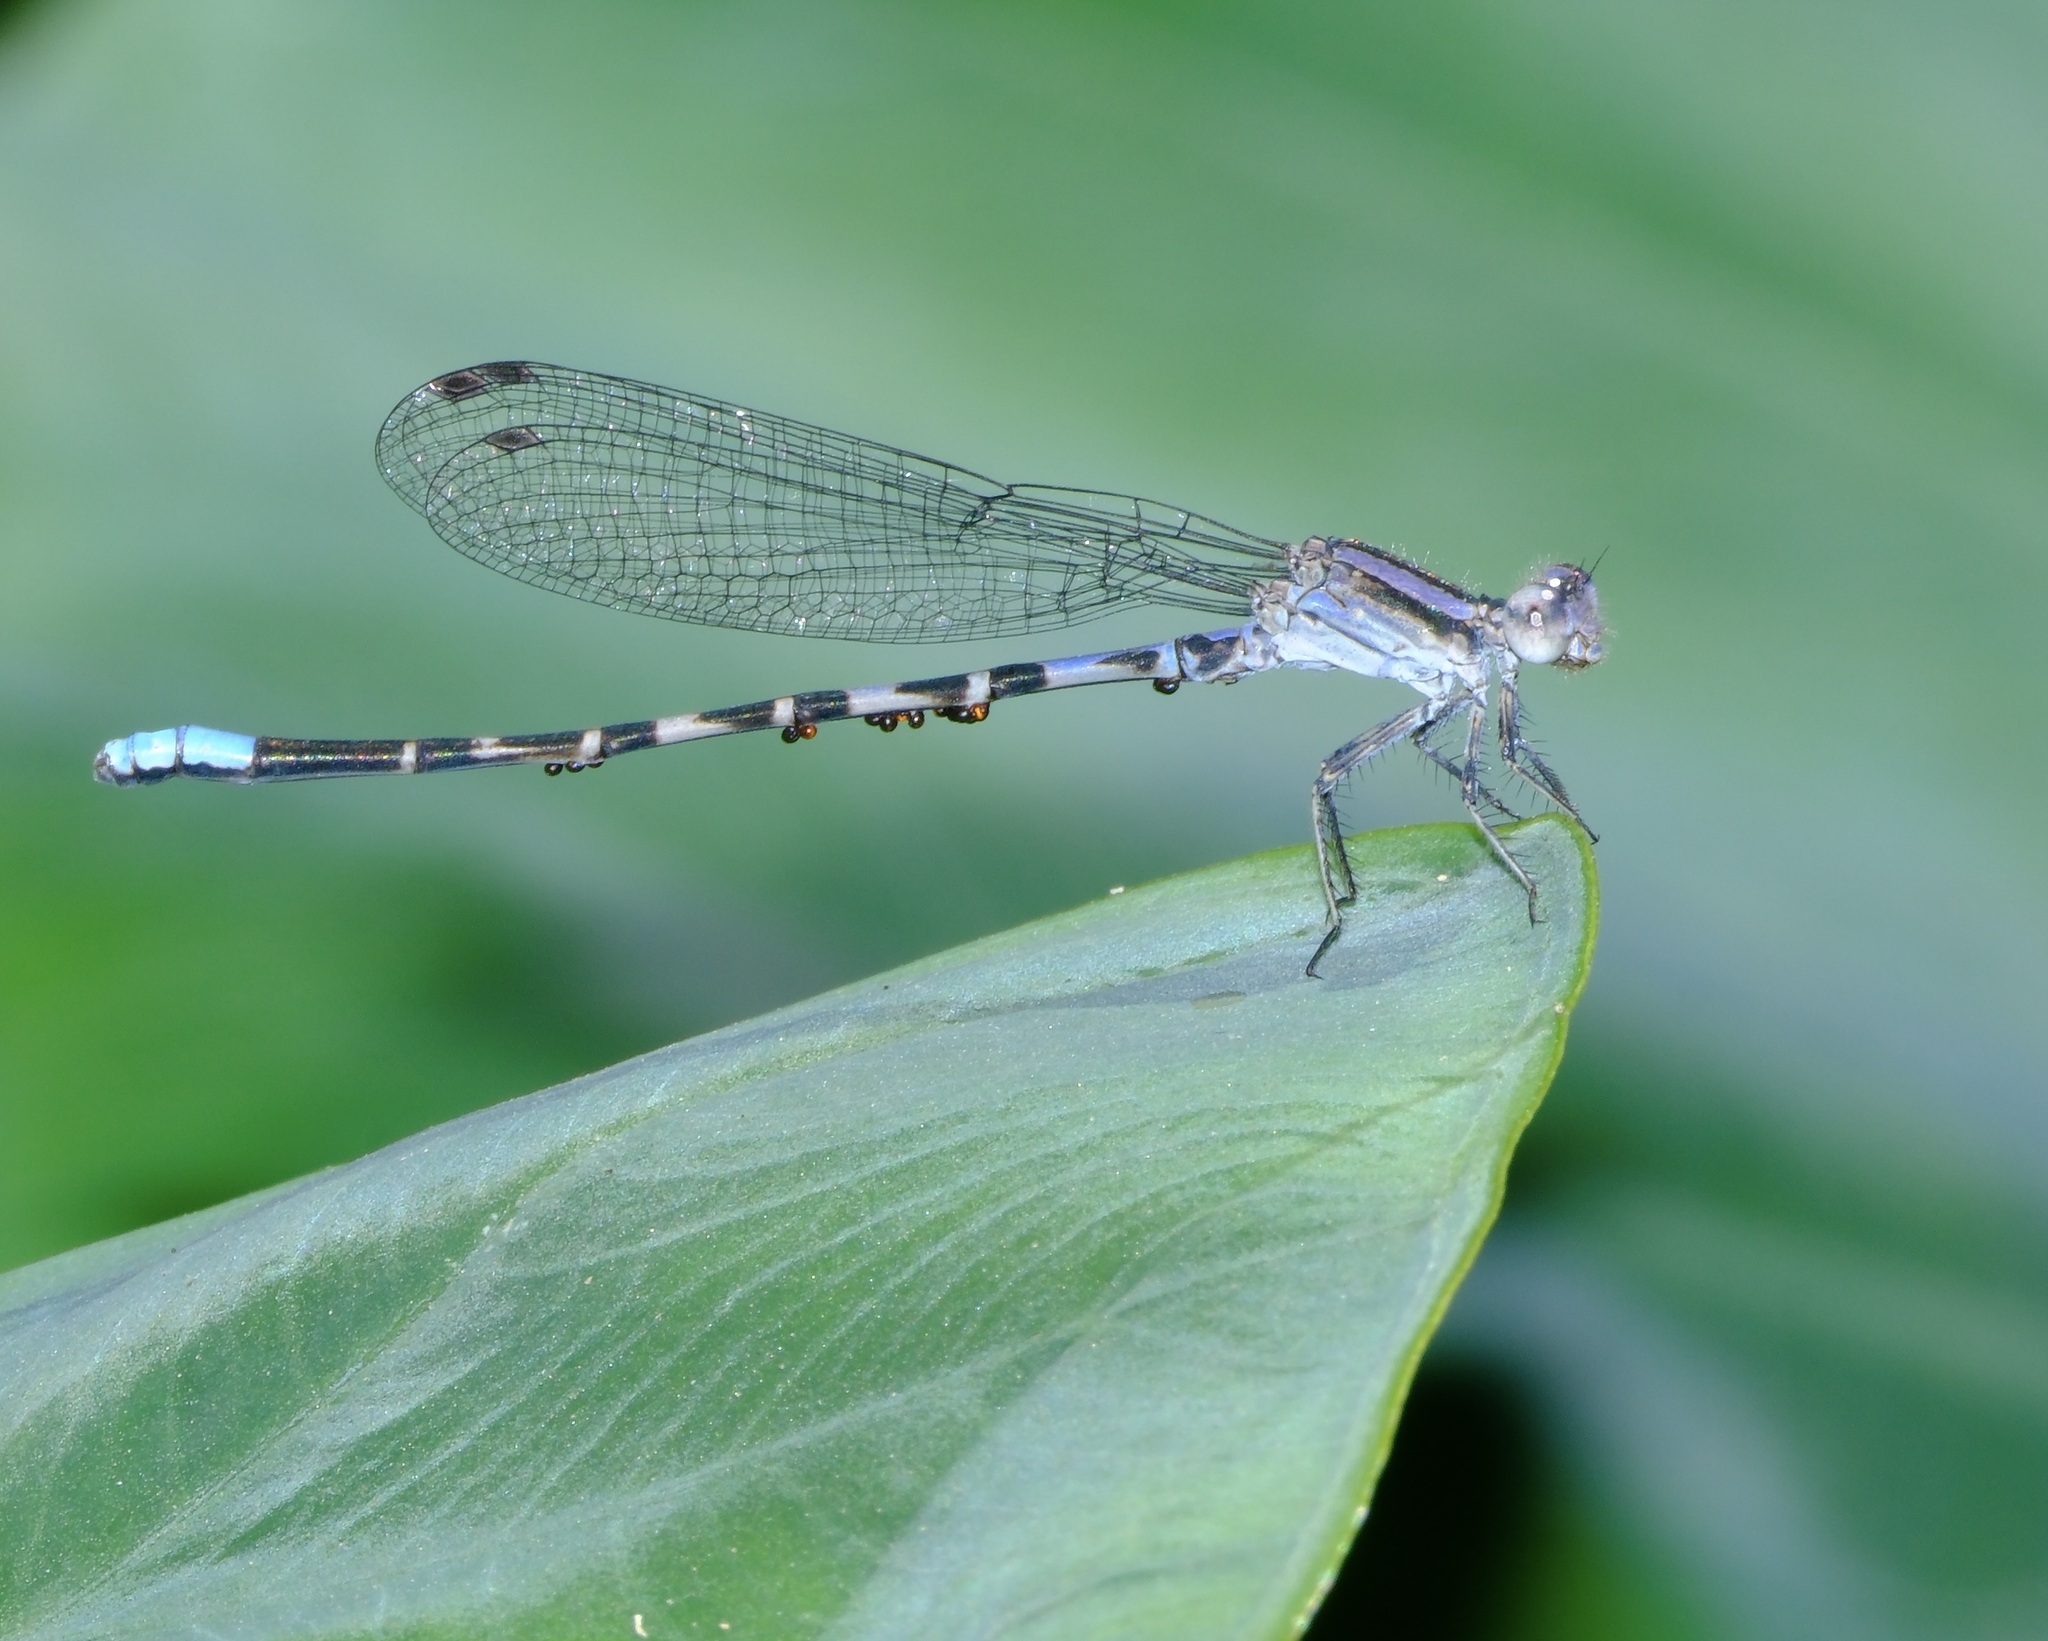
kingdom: Animalia
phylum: Arthropoda
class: Insecta
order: Odonata
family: Coenagrionidae
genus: Argia
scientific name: Argia immunda
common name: Kiowa dancer
